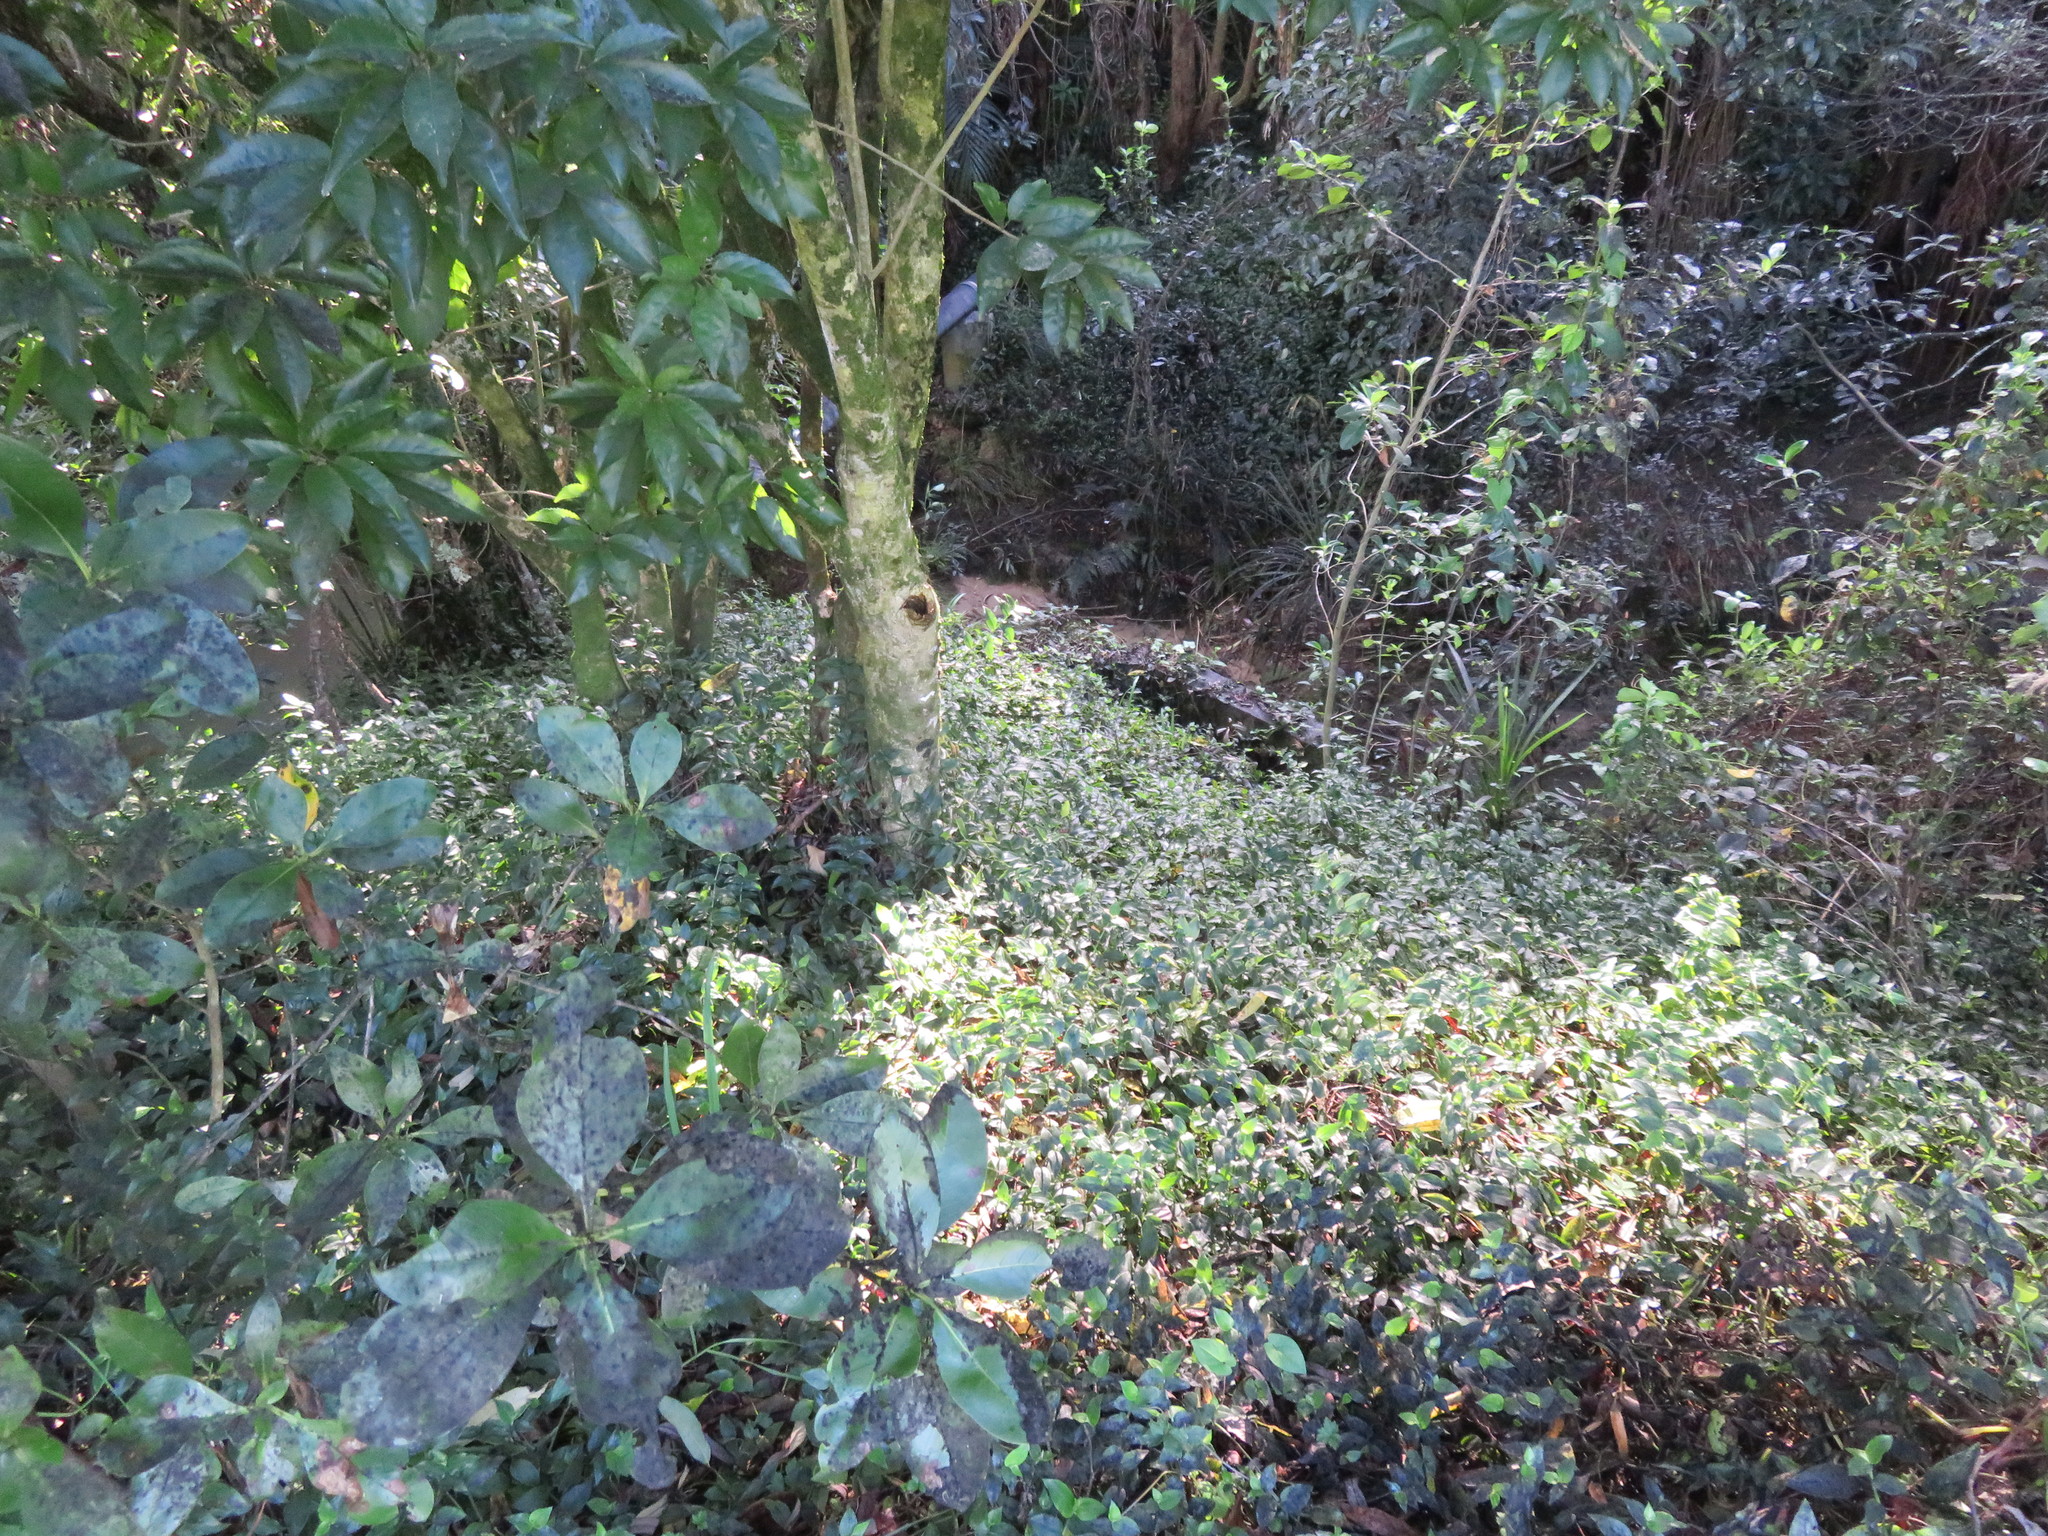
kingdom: Plantae
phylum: Tracheophyta
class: Liliopsida
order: Commelinales
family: Commelinaceae
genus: Tradescantia
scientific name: Tradescantia fluminensis
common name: Wandering-jew
